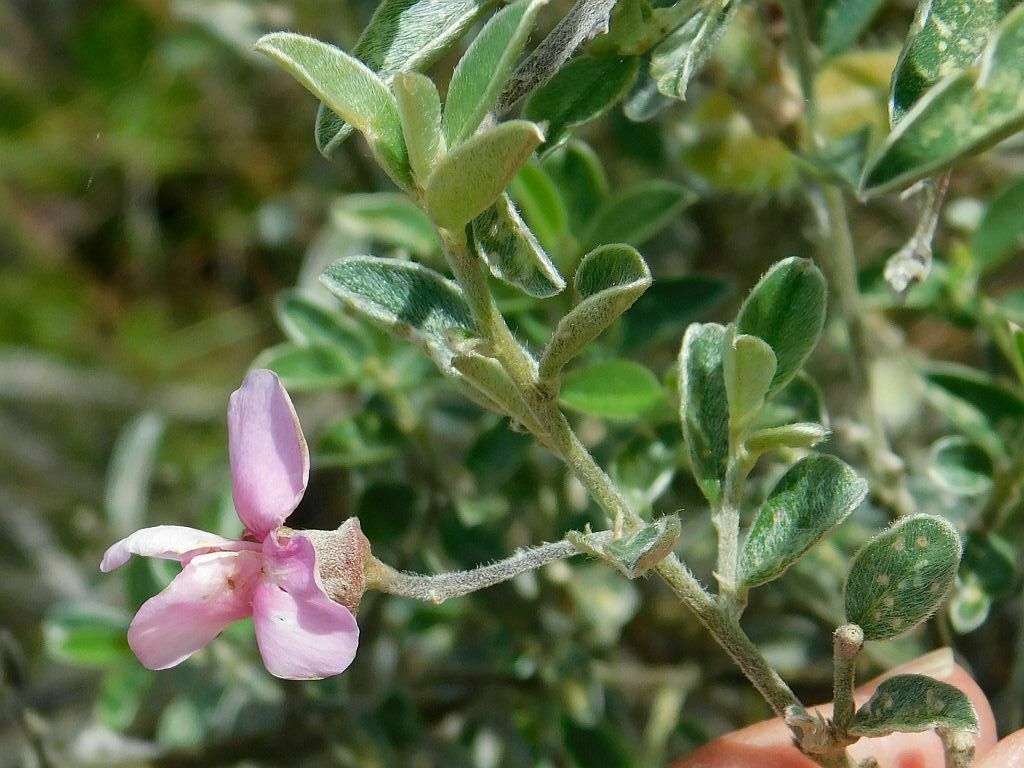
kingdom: Plantae
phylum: Tracheophyta
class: Magnoliopsida
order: Fabales
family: Fabaceae
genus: Podalyria
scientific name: Podalyria burchellii
